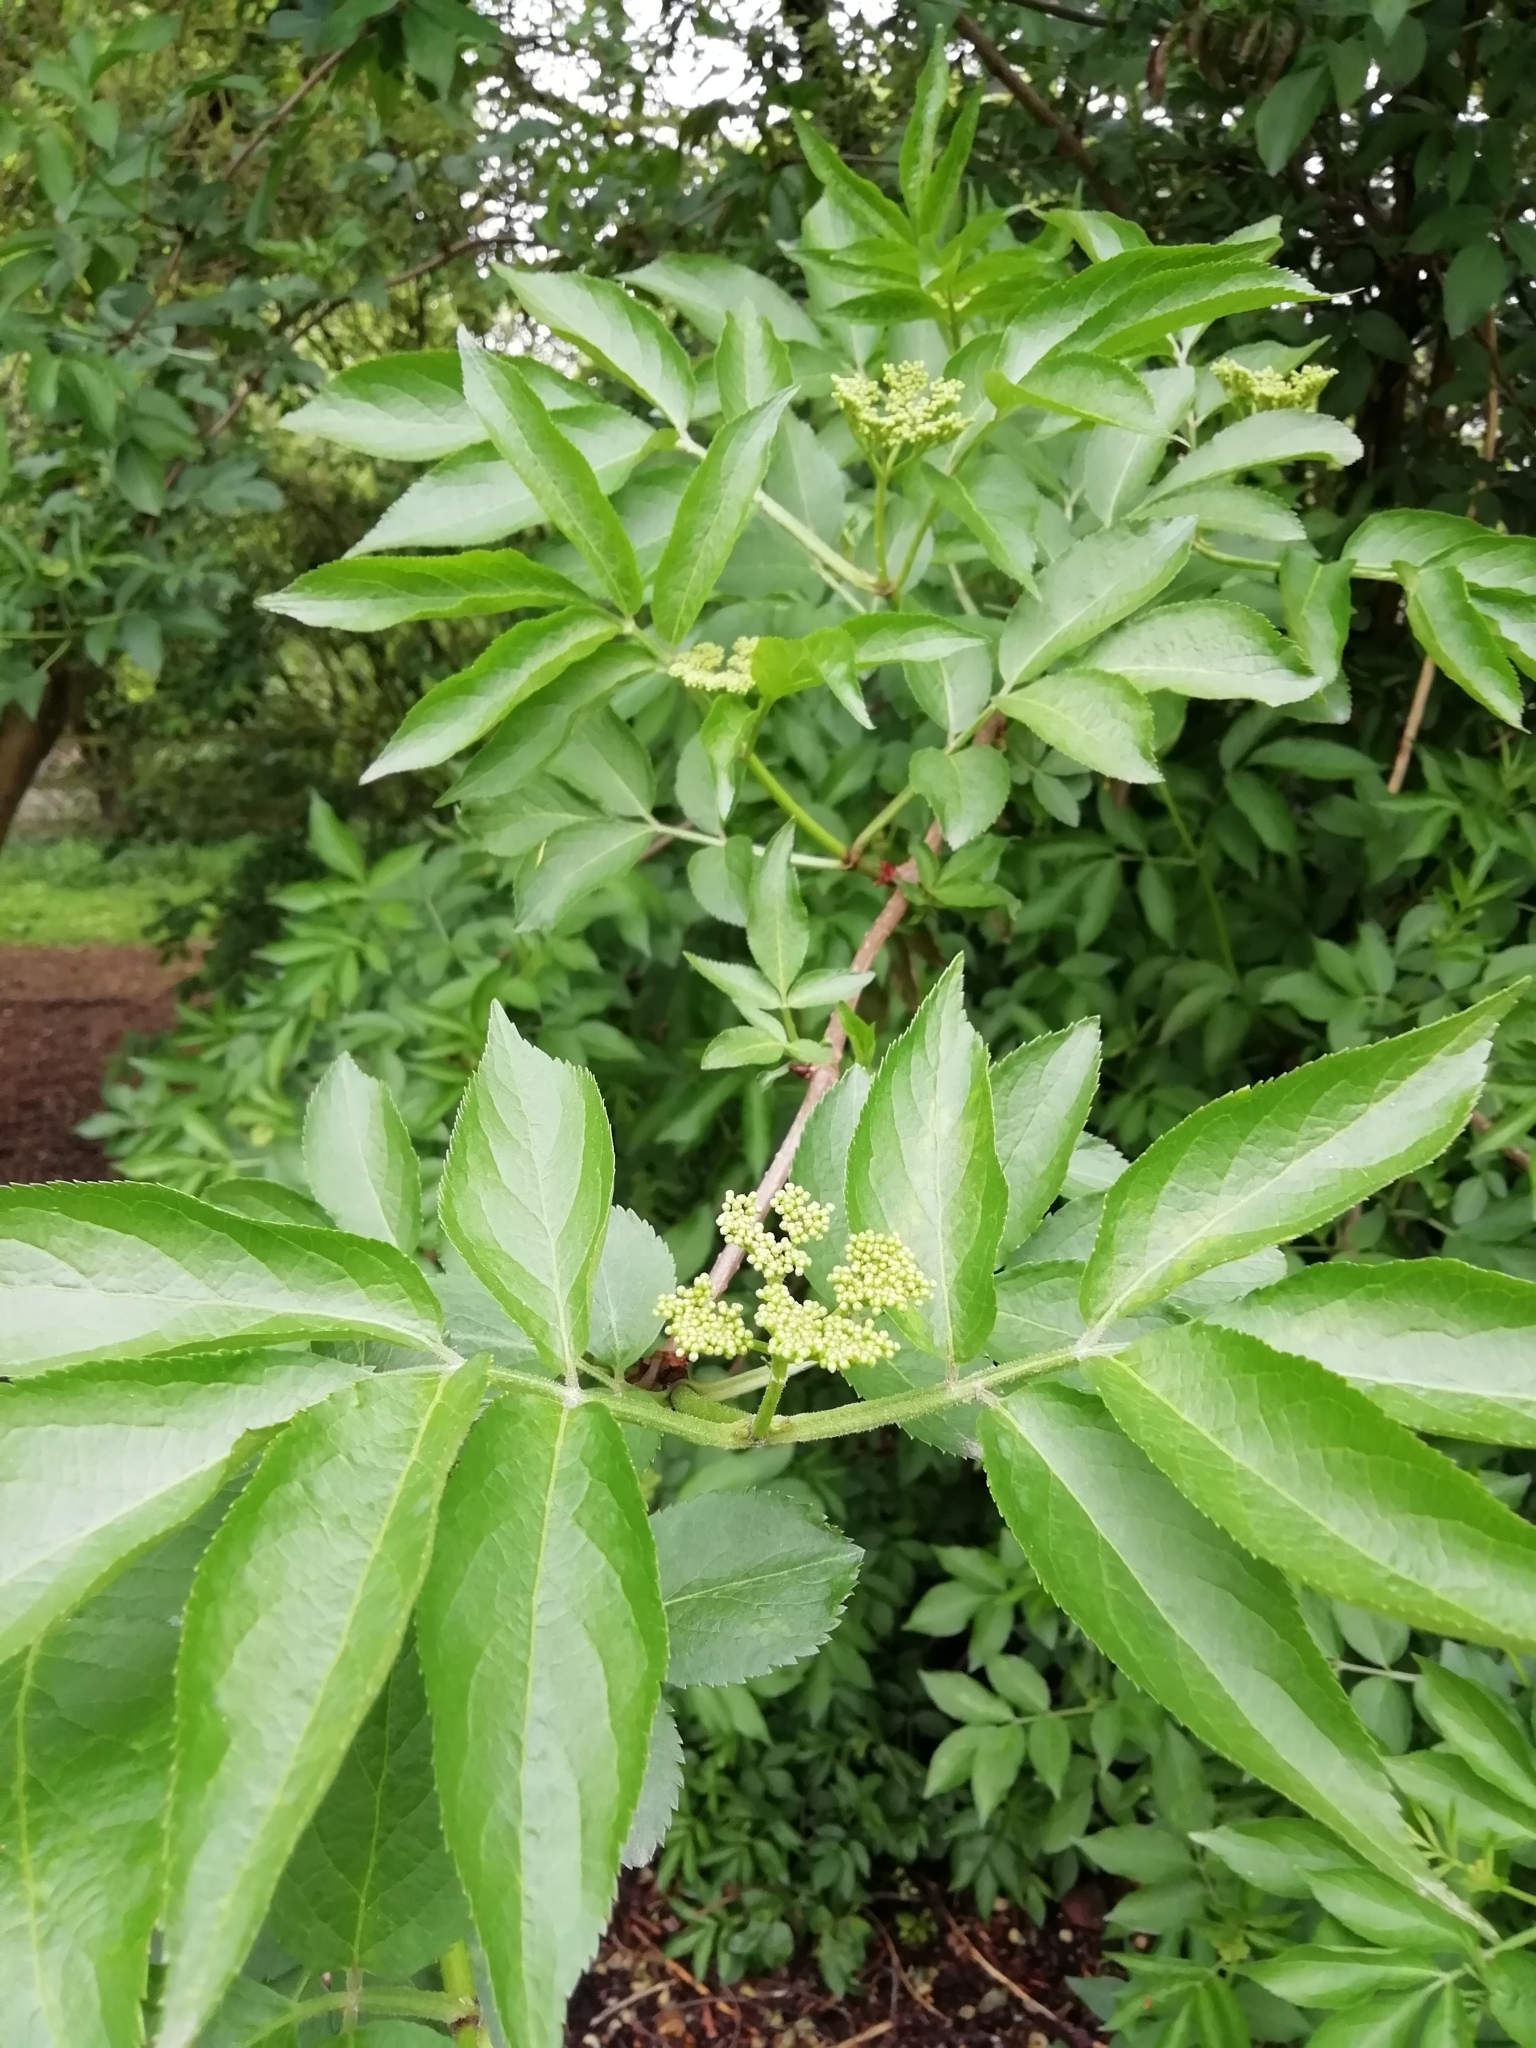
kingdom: Plantae
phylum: Tracheophyta
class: Magnoliopsida
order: Dipsacales
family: Viburnaceae
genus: Sambucus
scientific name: Sambucus nigra
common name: Elder
